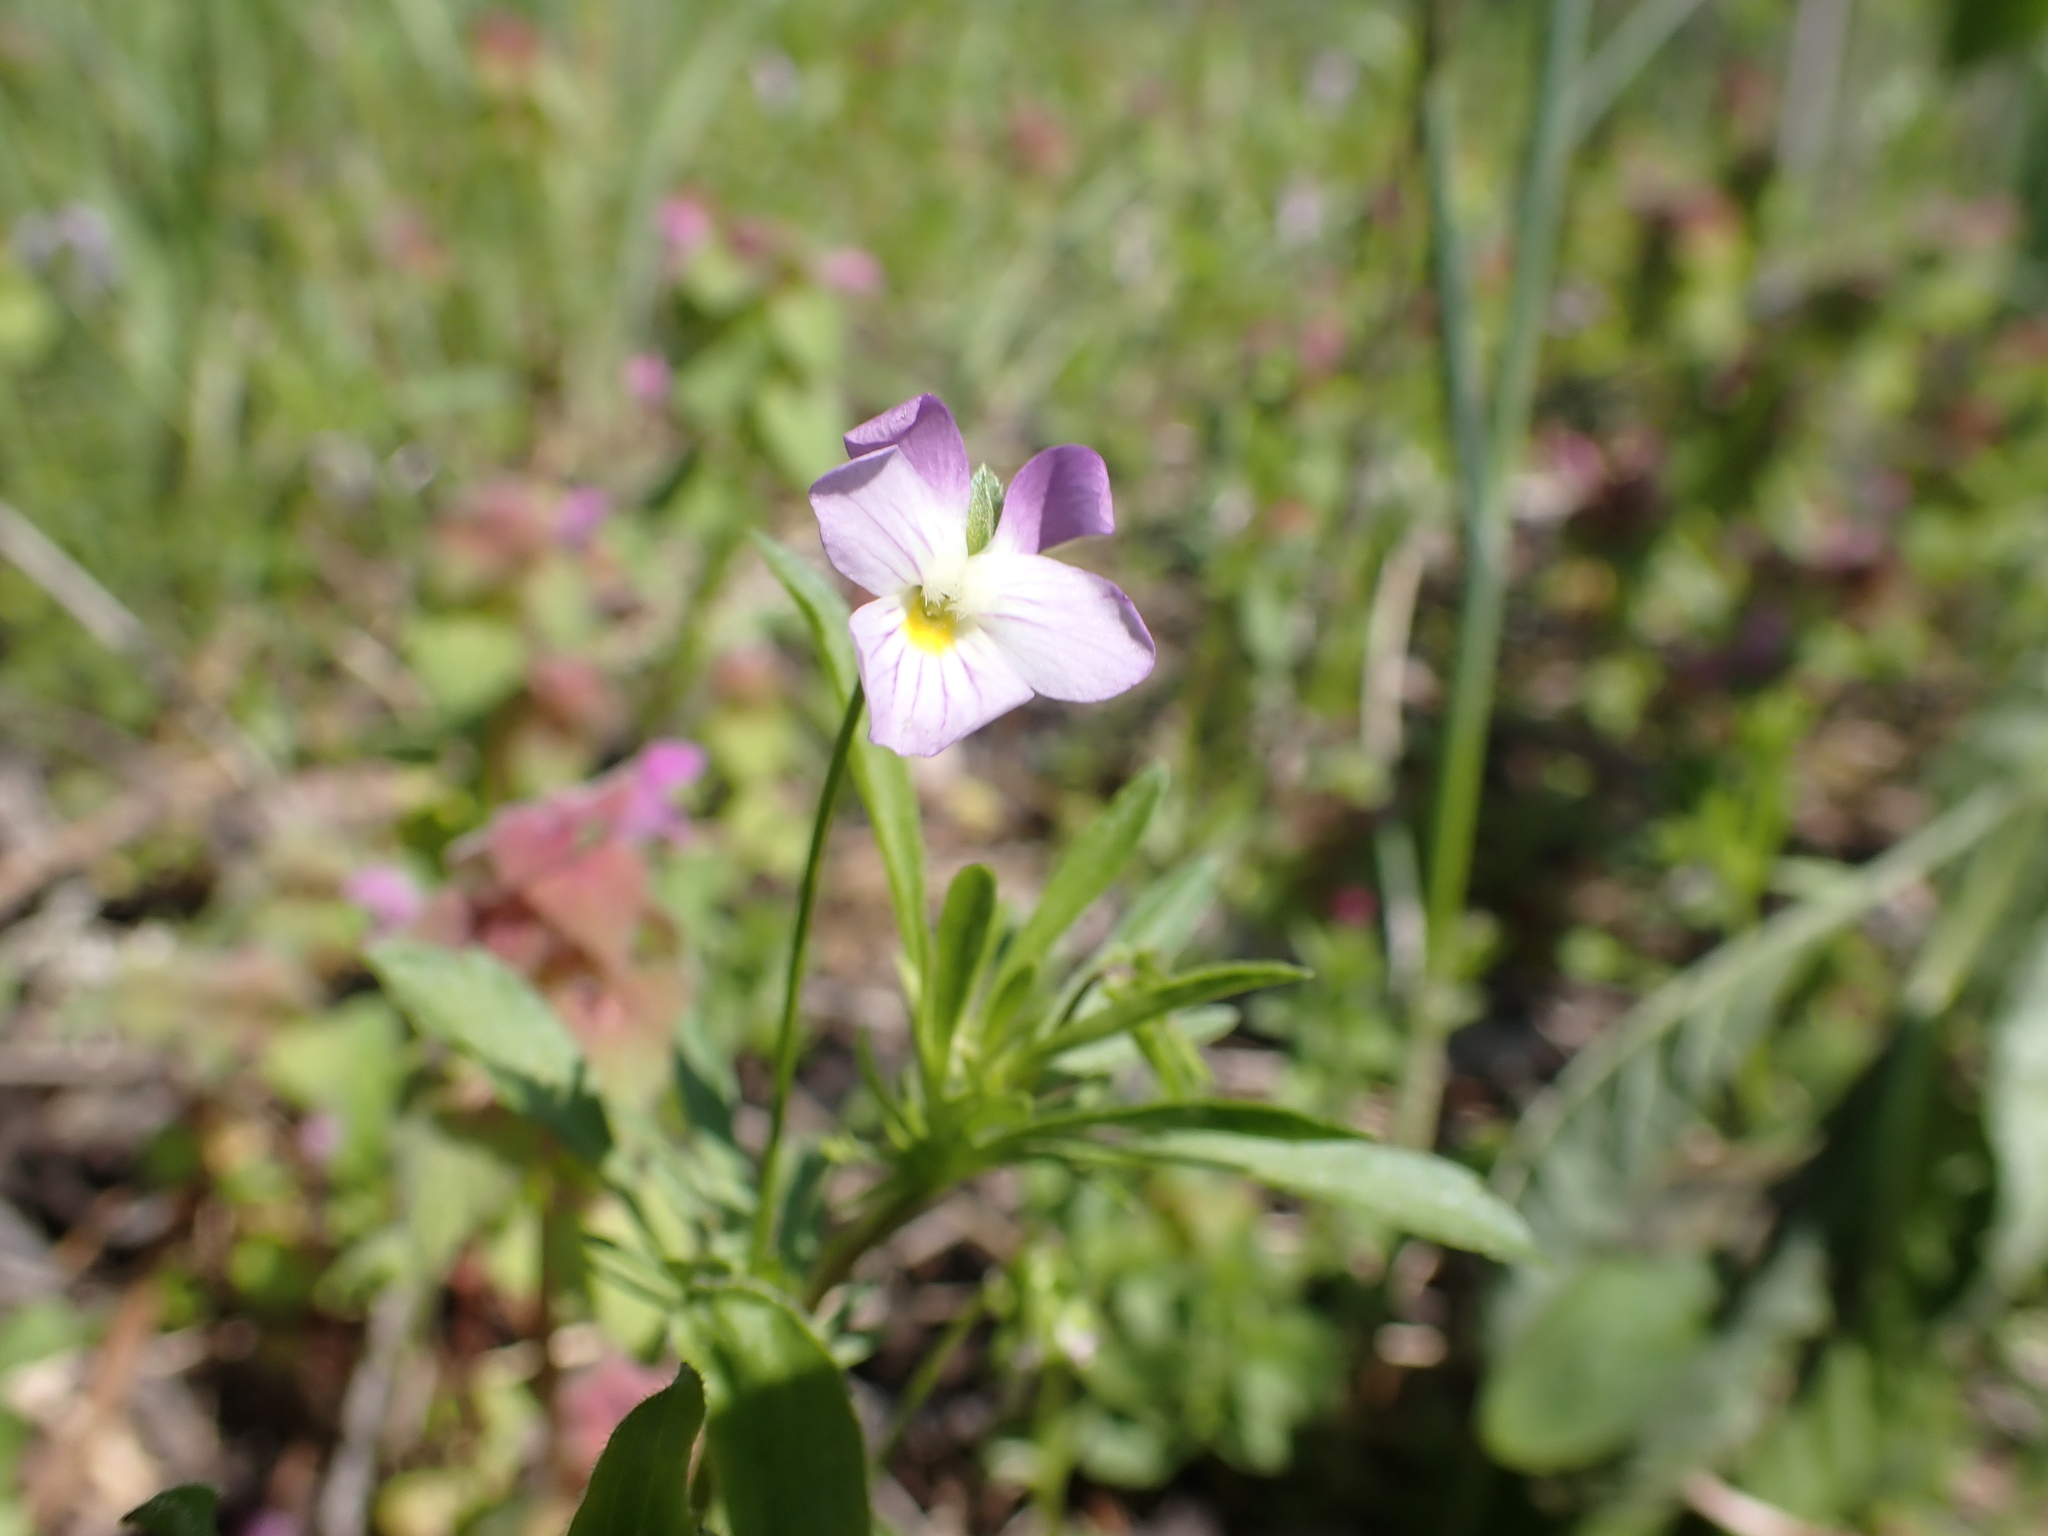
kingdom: Plantae
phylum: Tracheophyta
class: Magnoliopsida
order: Malpighiales
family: Violaceae
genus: Viola
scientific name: Viola rafinesquei
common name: American field pansy
